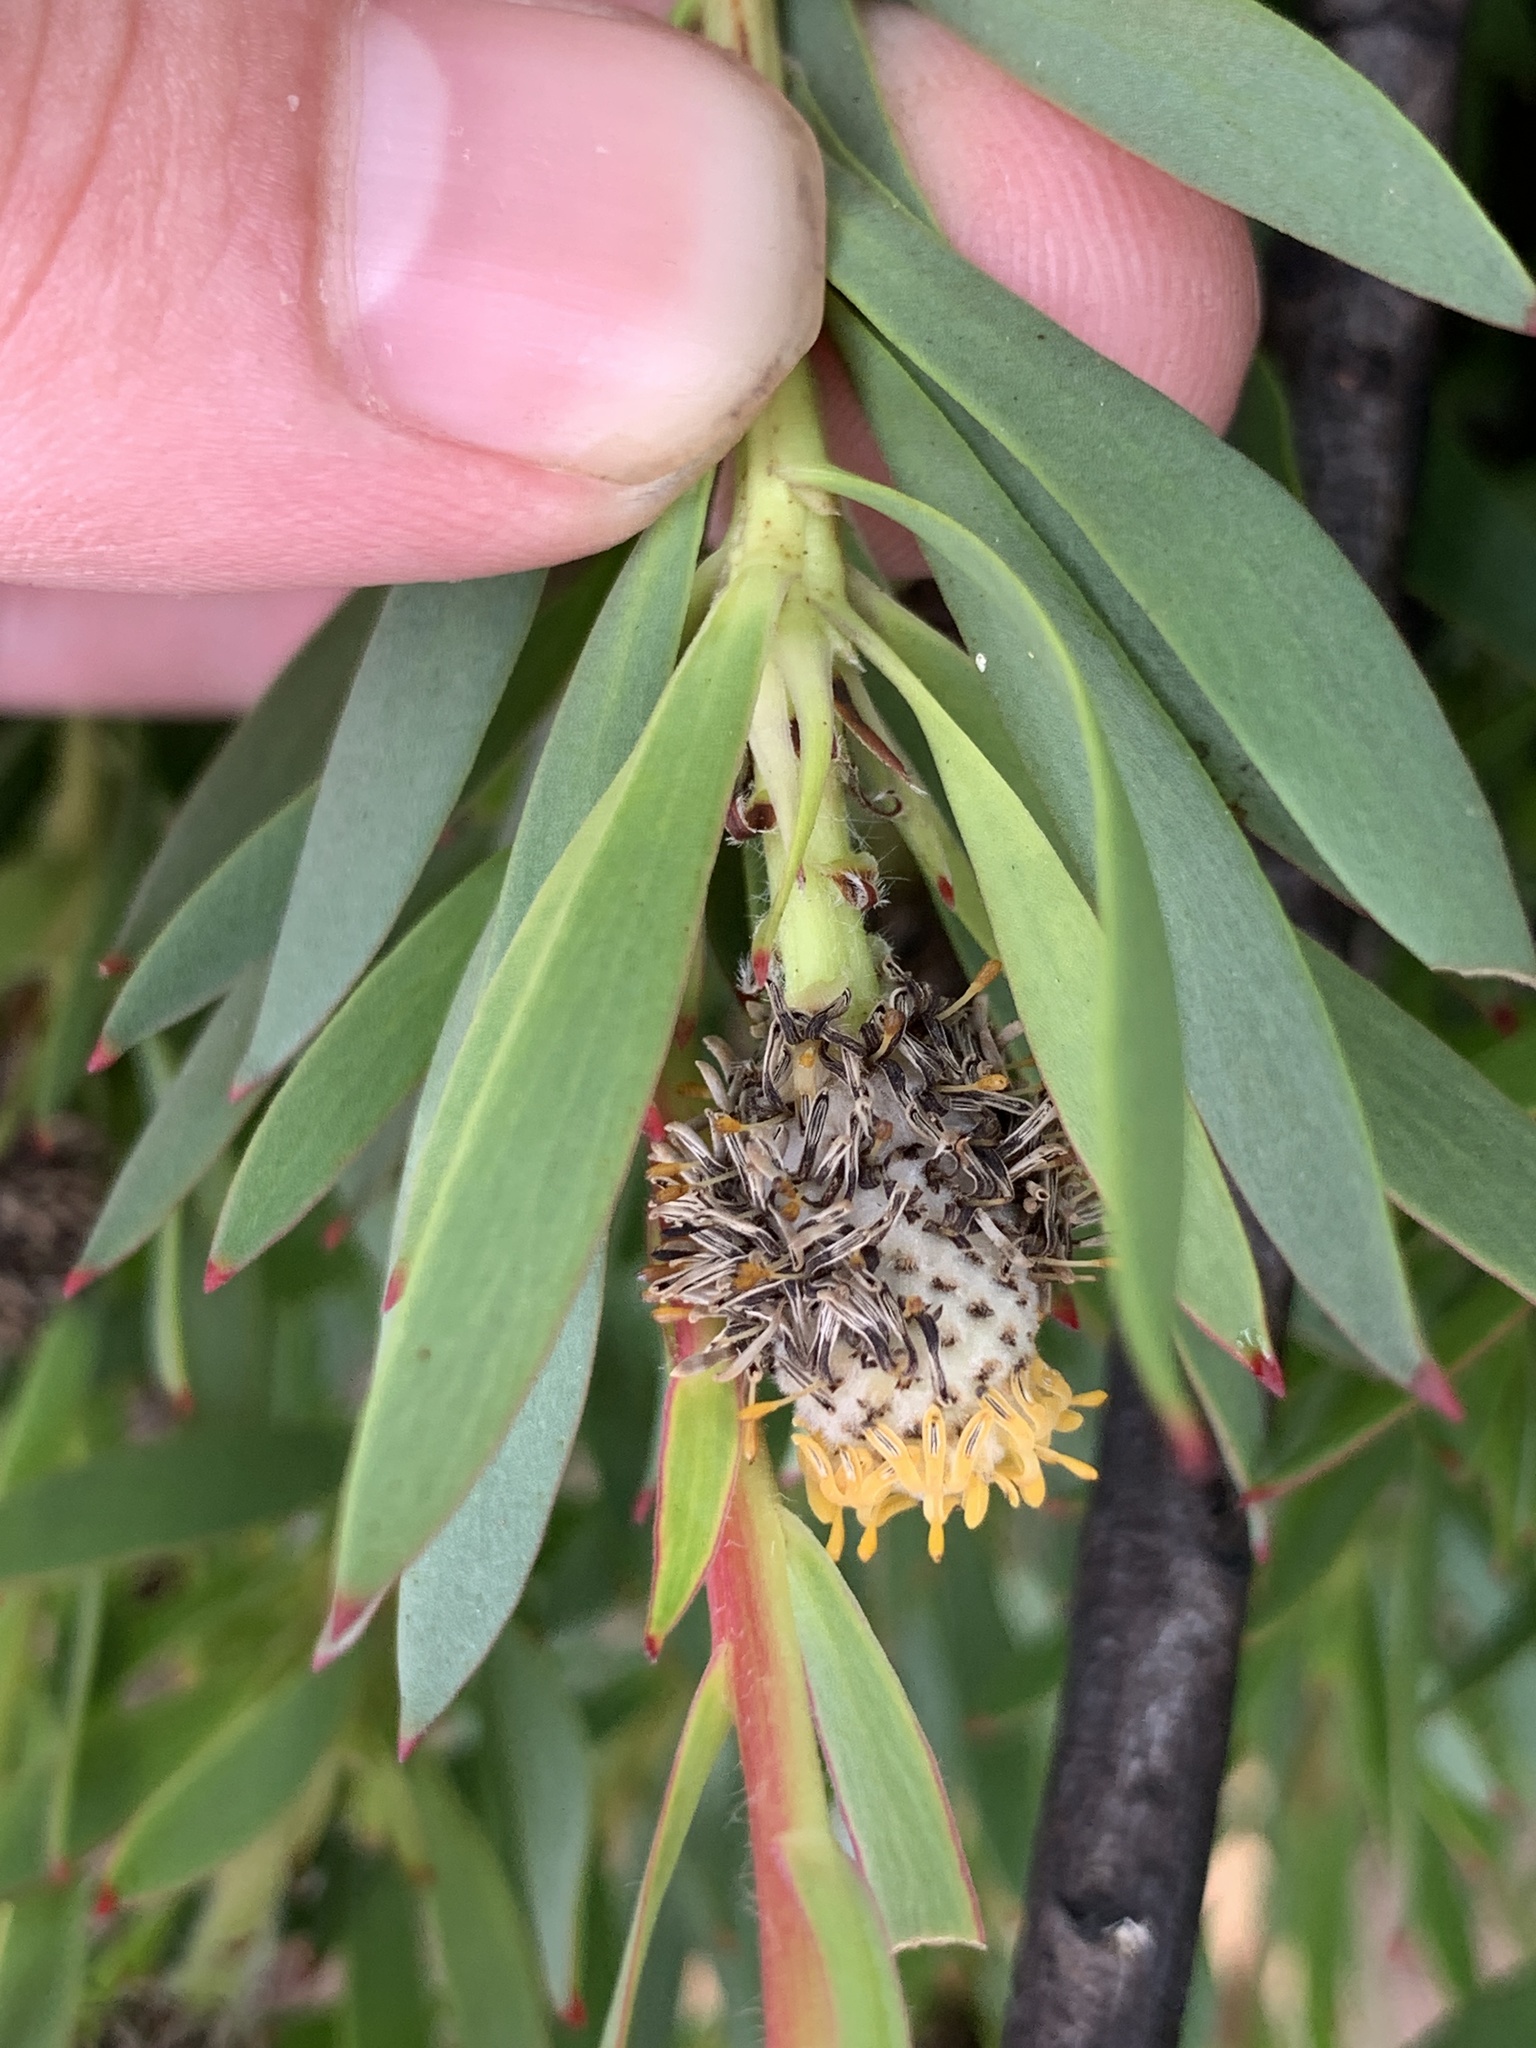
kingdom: Plantae
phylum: Tracheophyta
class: Magnoliopsida
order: Proteales
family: Proteaceae
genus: Leucadendron
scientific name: Leucadendron salignum
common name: Common sunshine conebush
